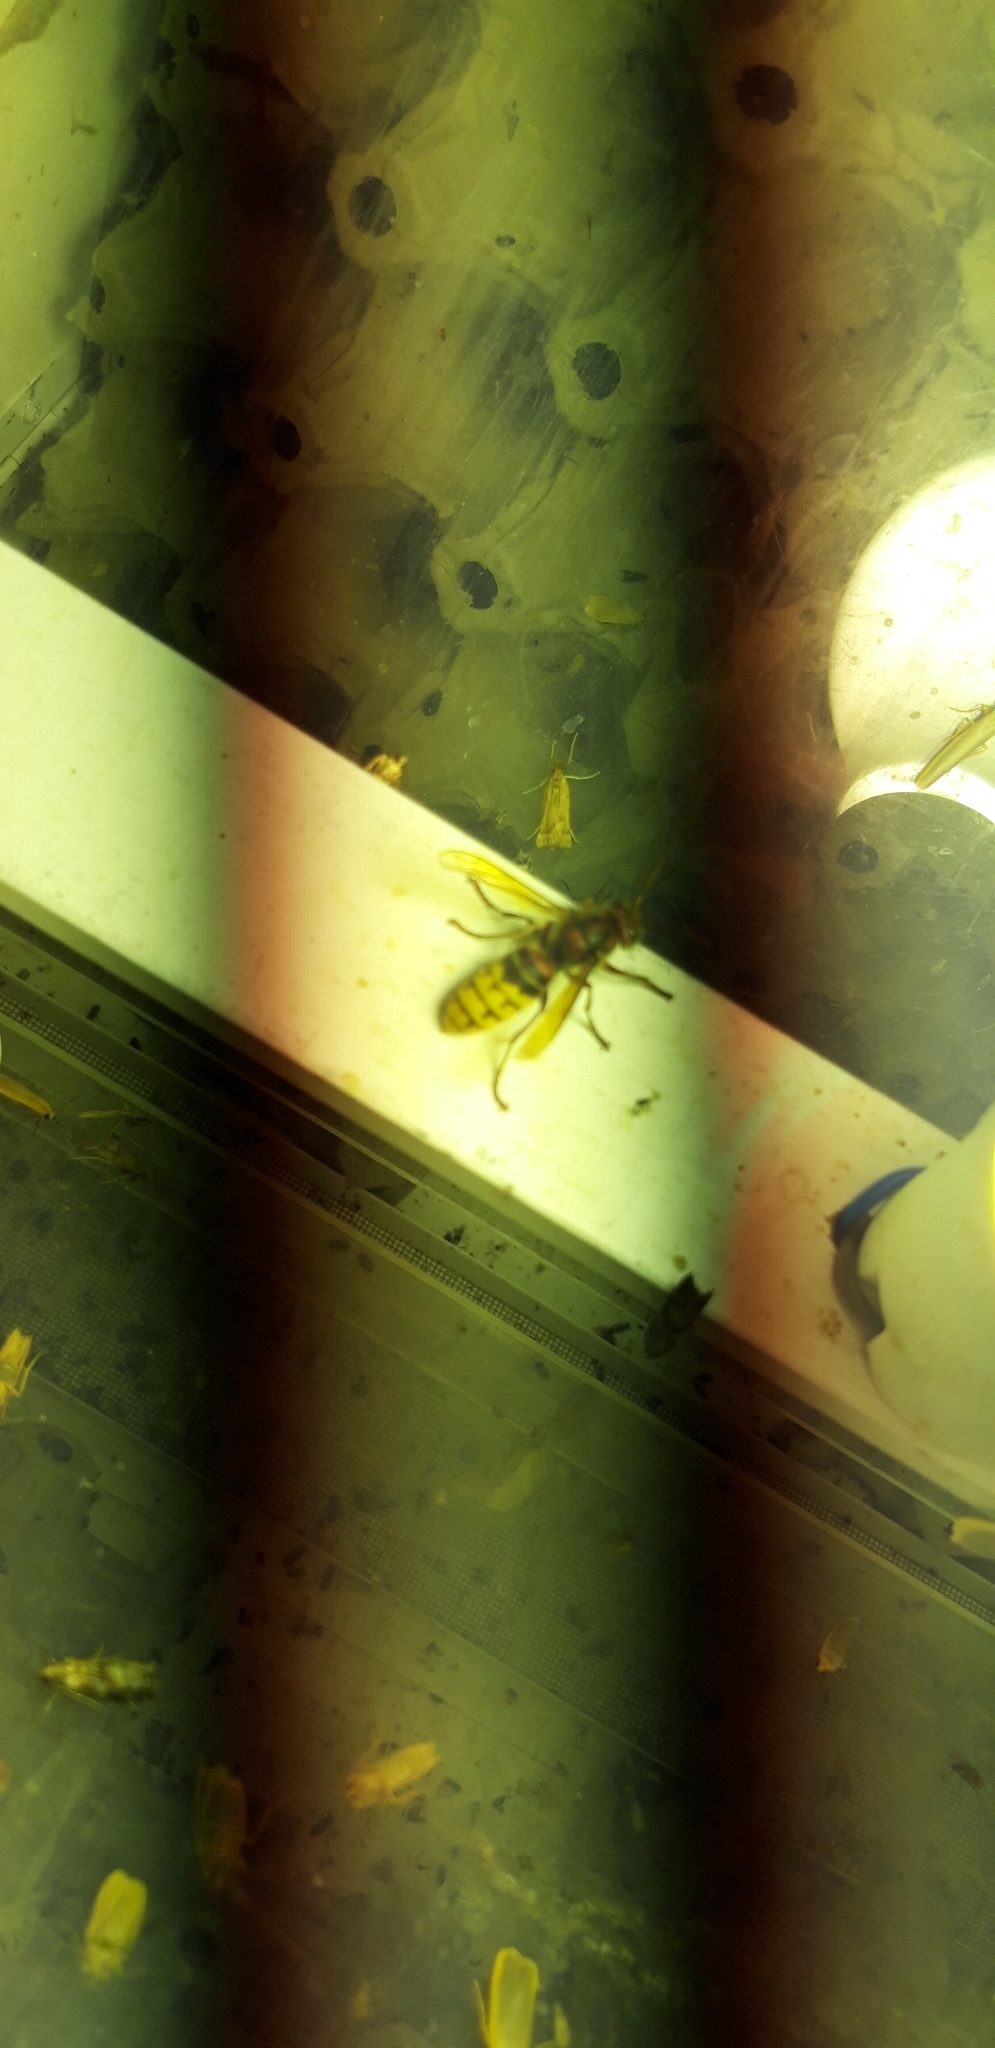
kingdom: Animalia
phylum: Arthropoda
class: Insecta
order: Hymenoptera
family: Vespidae
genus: Vespa
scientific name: Vespa crabro
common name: Hornet
